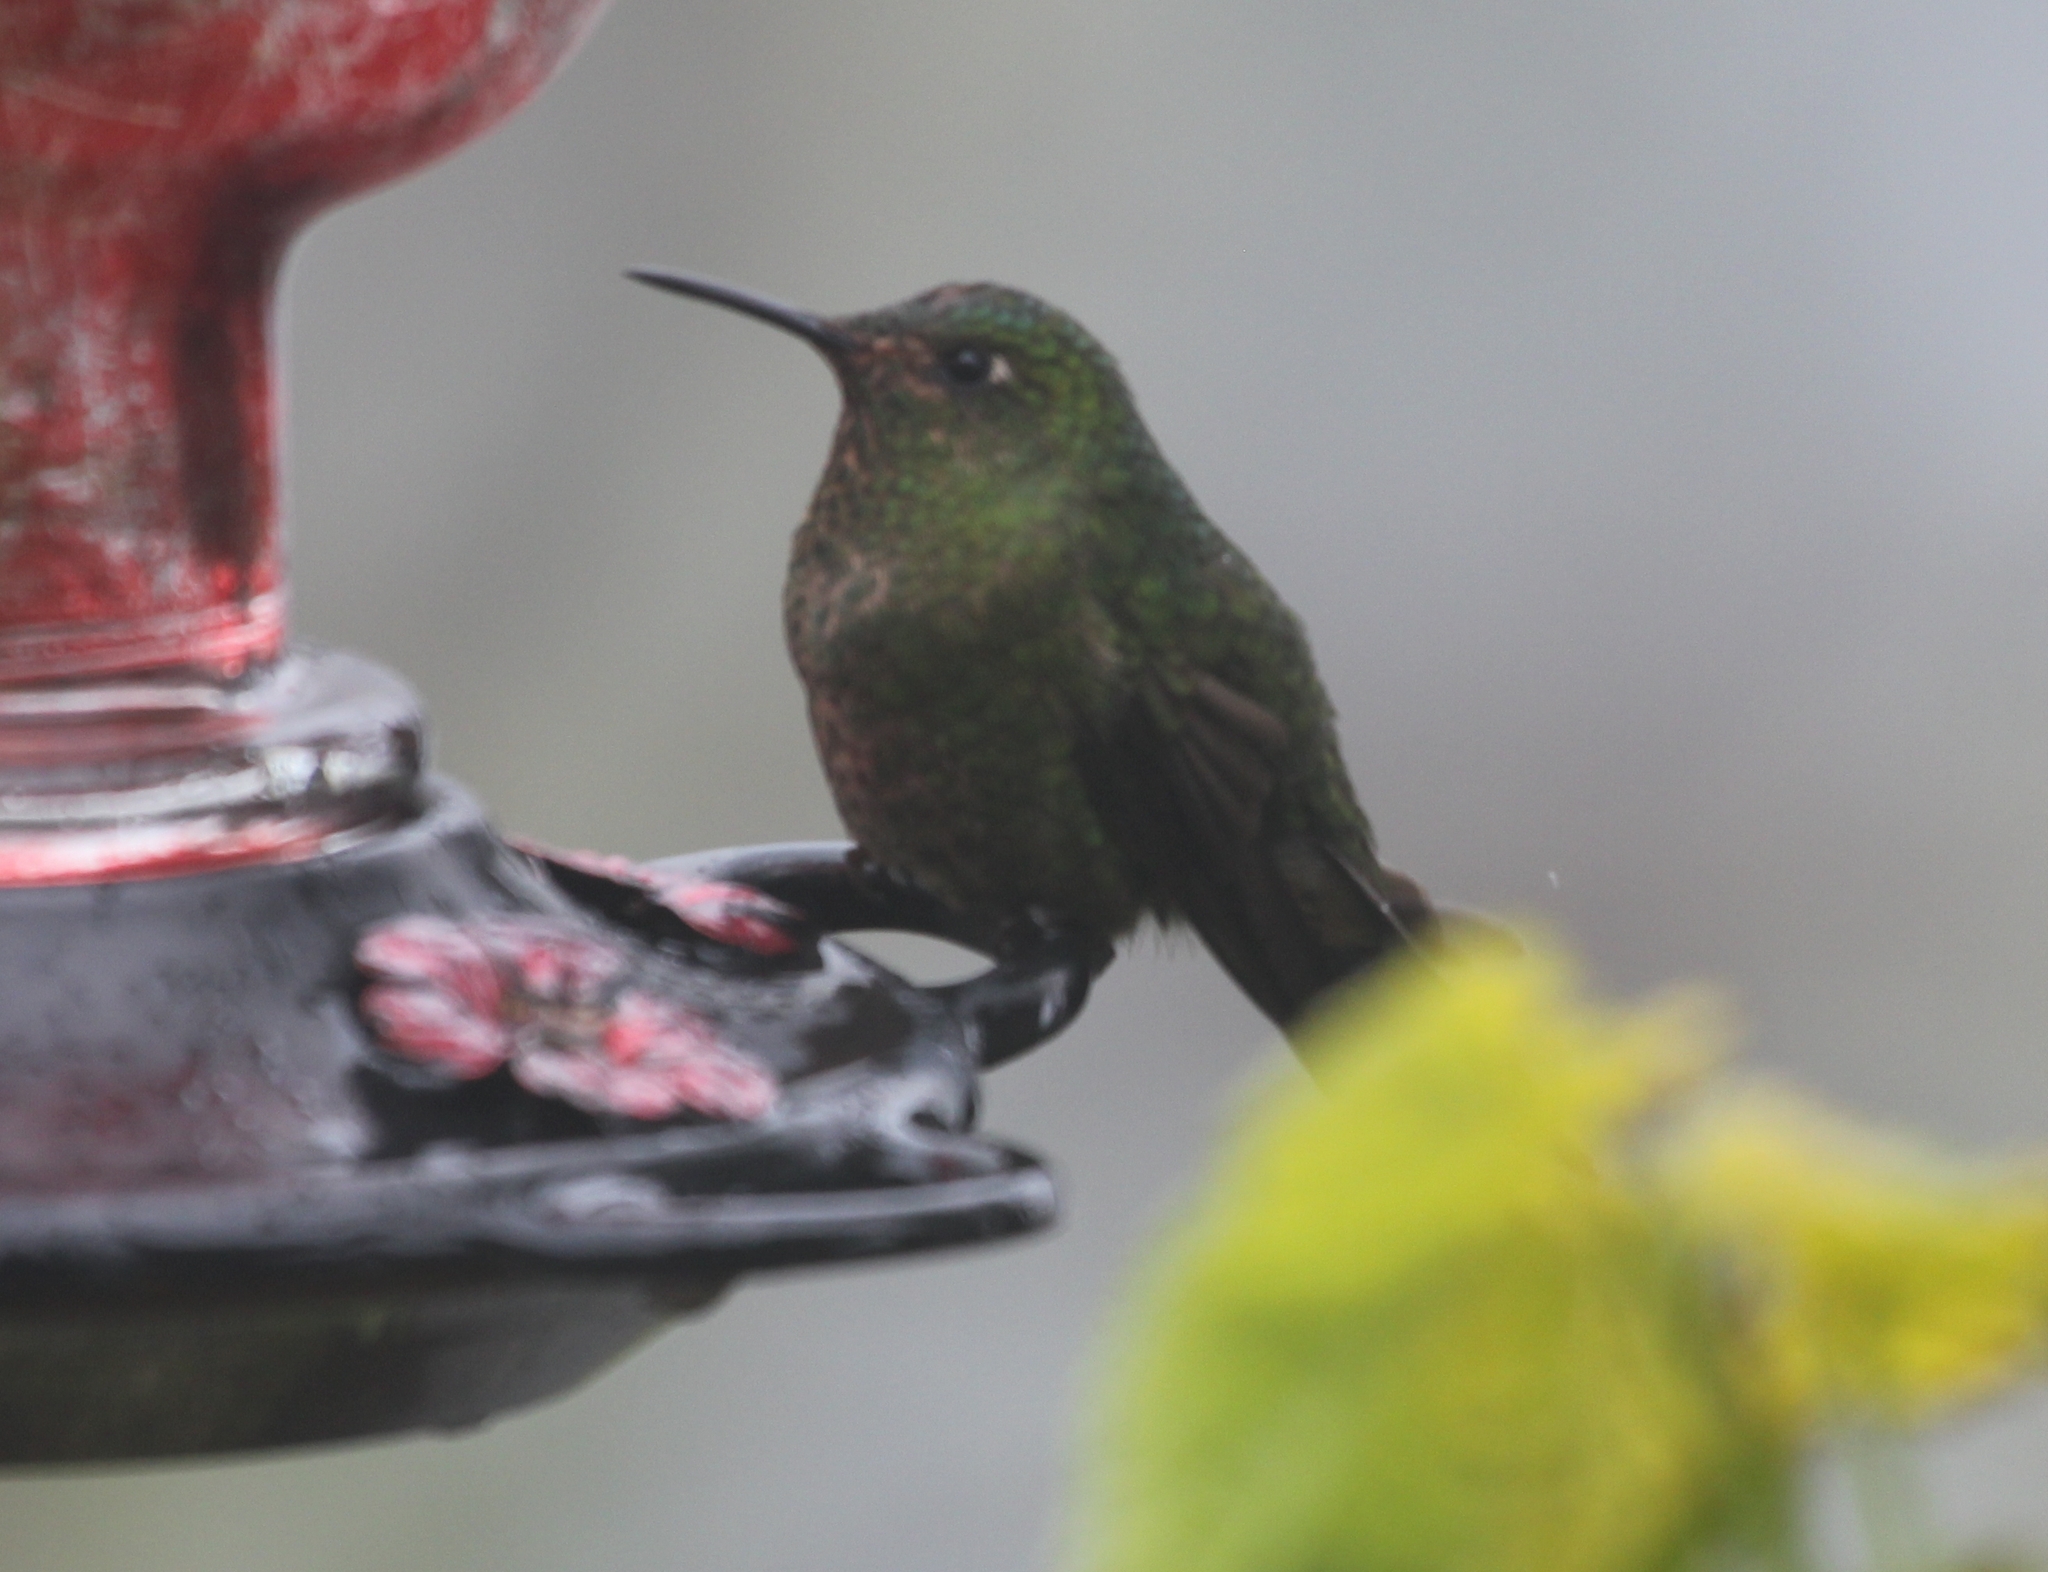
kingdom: Animalia
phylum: Chordata
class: Aves
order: Apodiformes
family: Trochilidae
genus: Metallura
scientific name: Metallura williami
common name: Viridian metaltail
